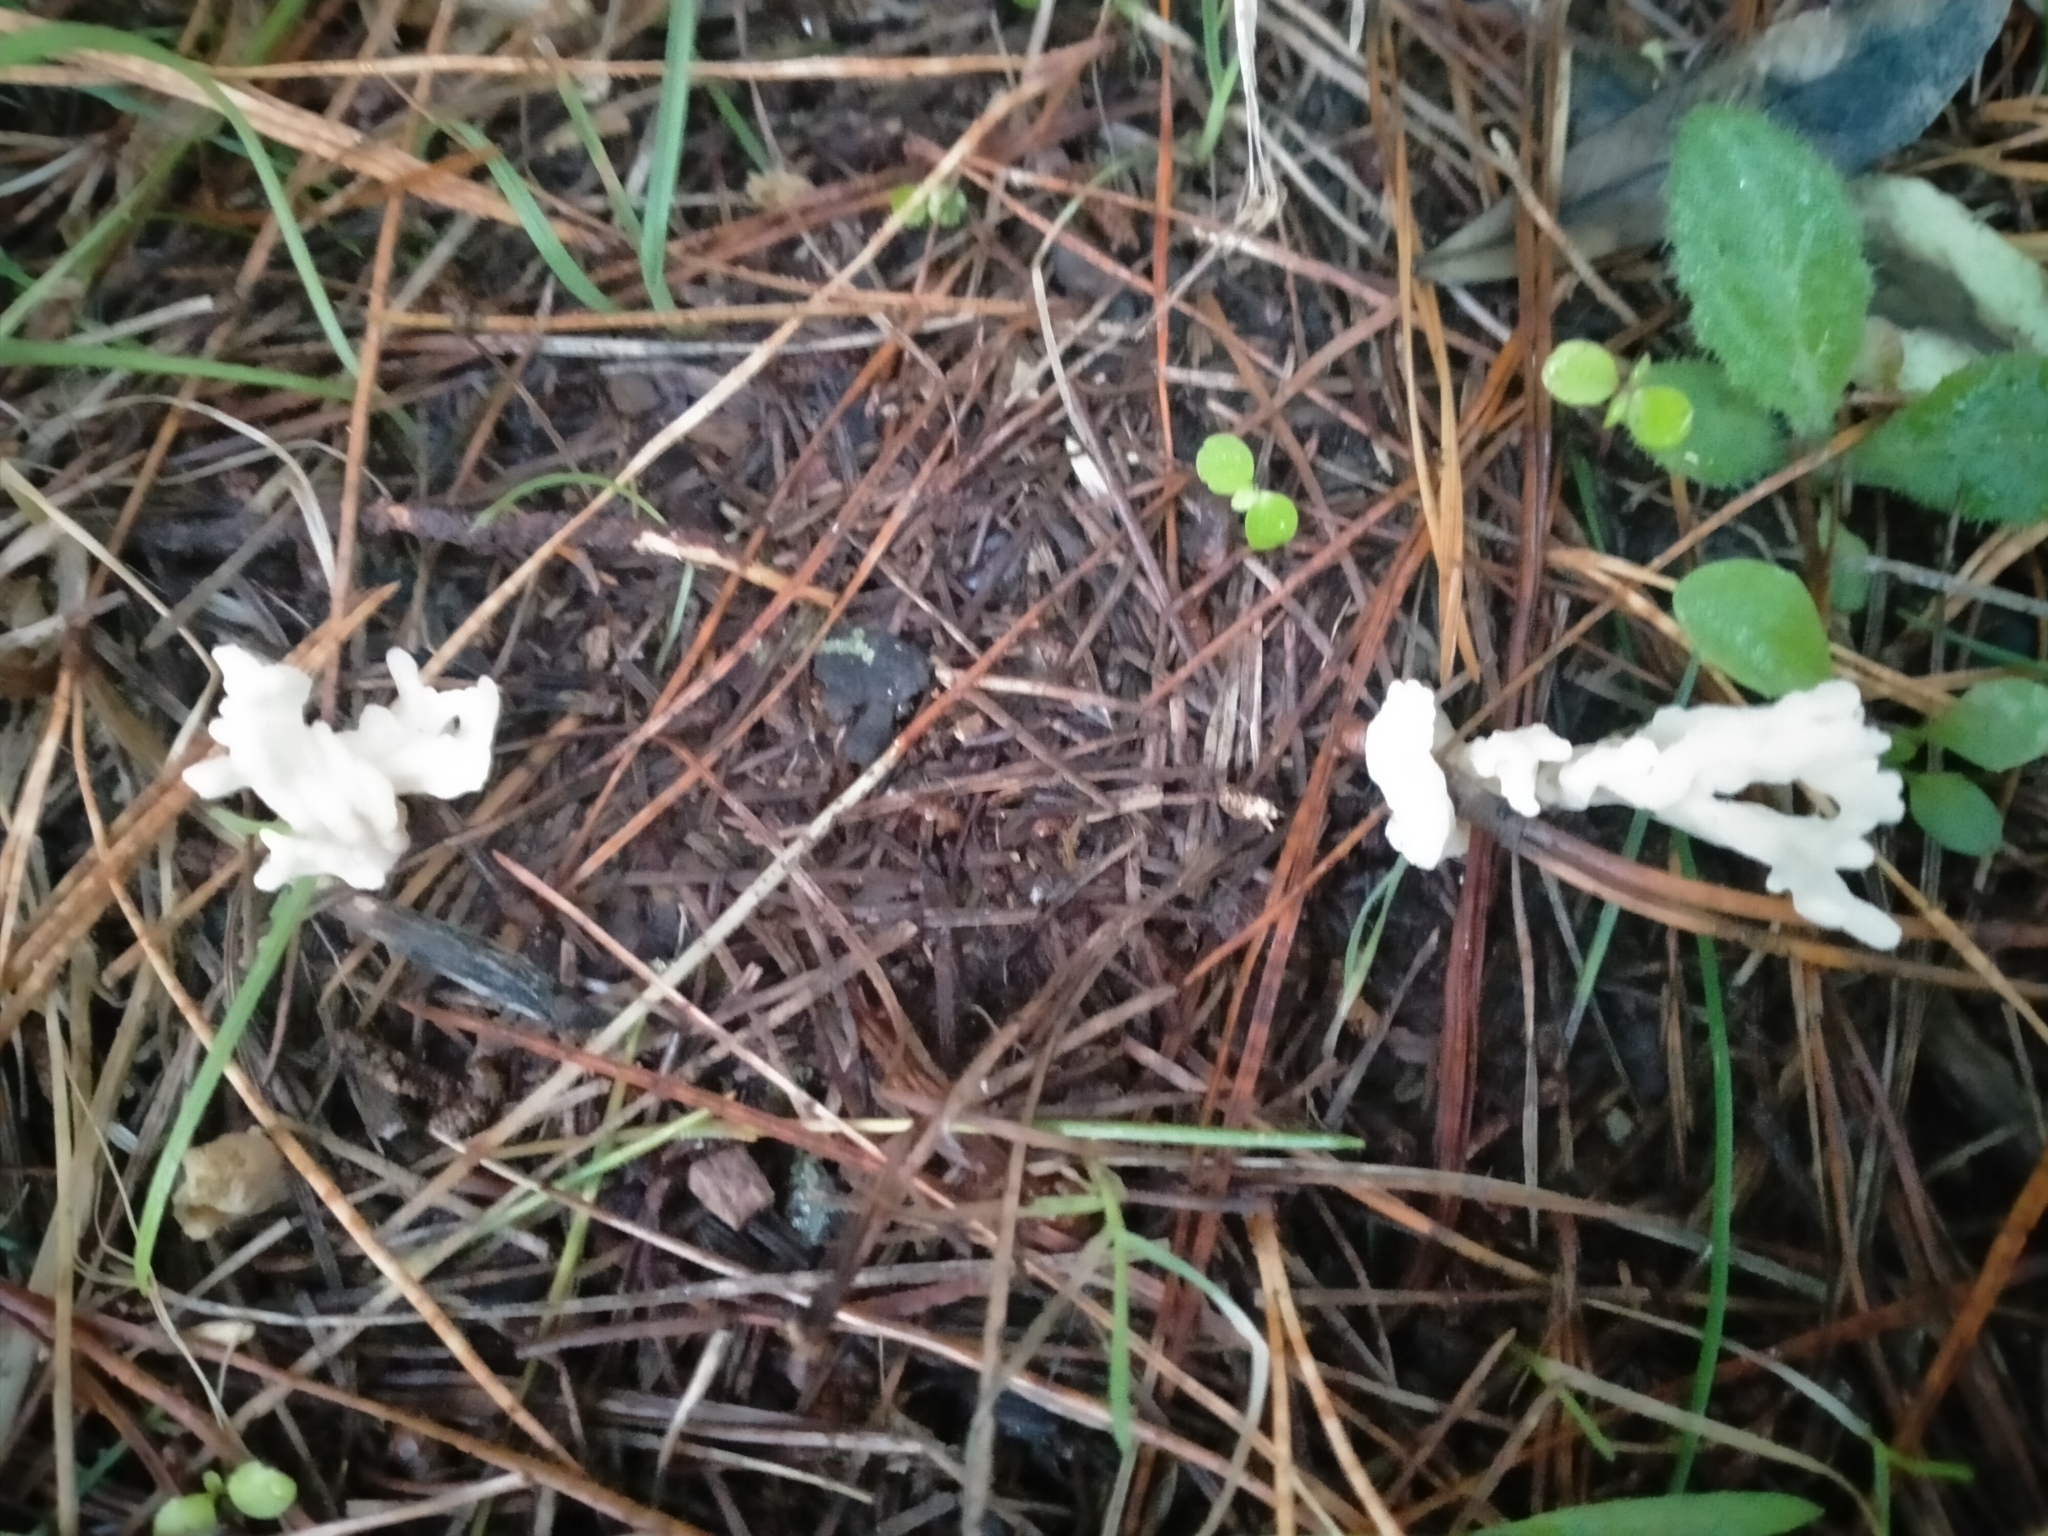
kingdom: Fungi
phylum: Basidiomycota
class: Agaricomycetes
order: Cantharellales
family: Hydnaceae
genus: Clavulina
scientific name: Clavulina rugosa
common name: Wrinkled club
